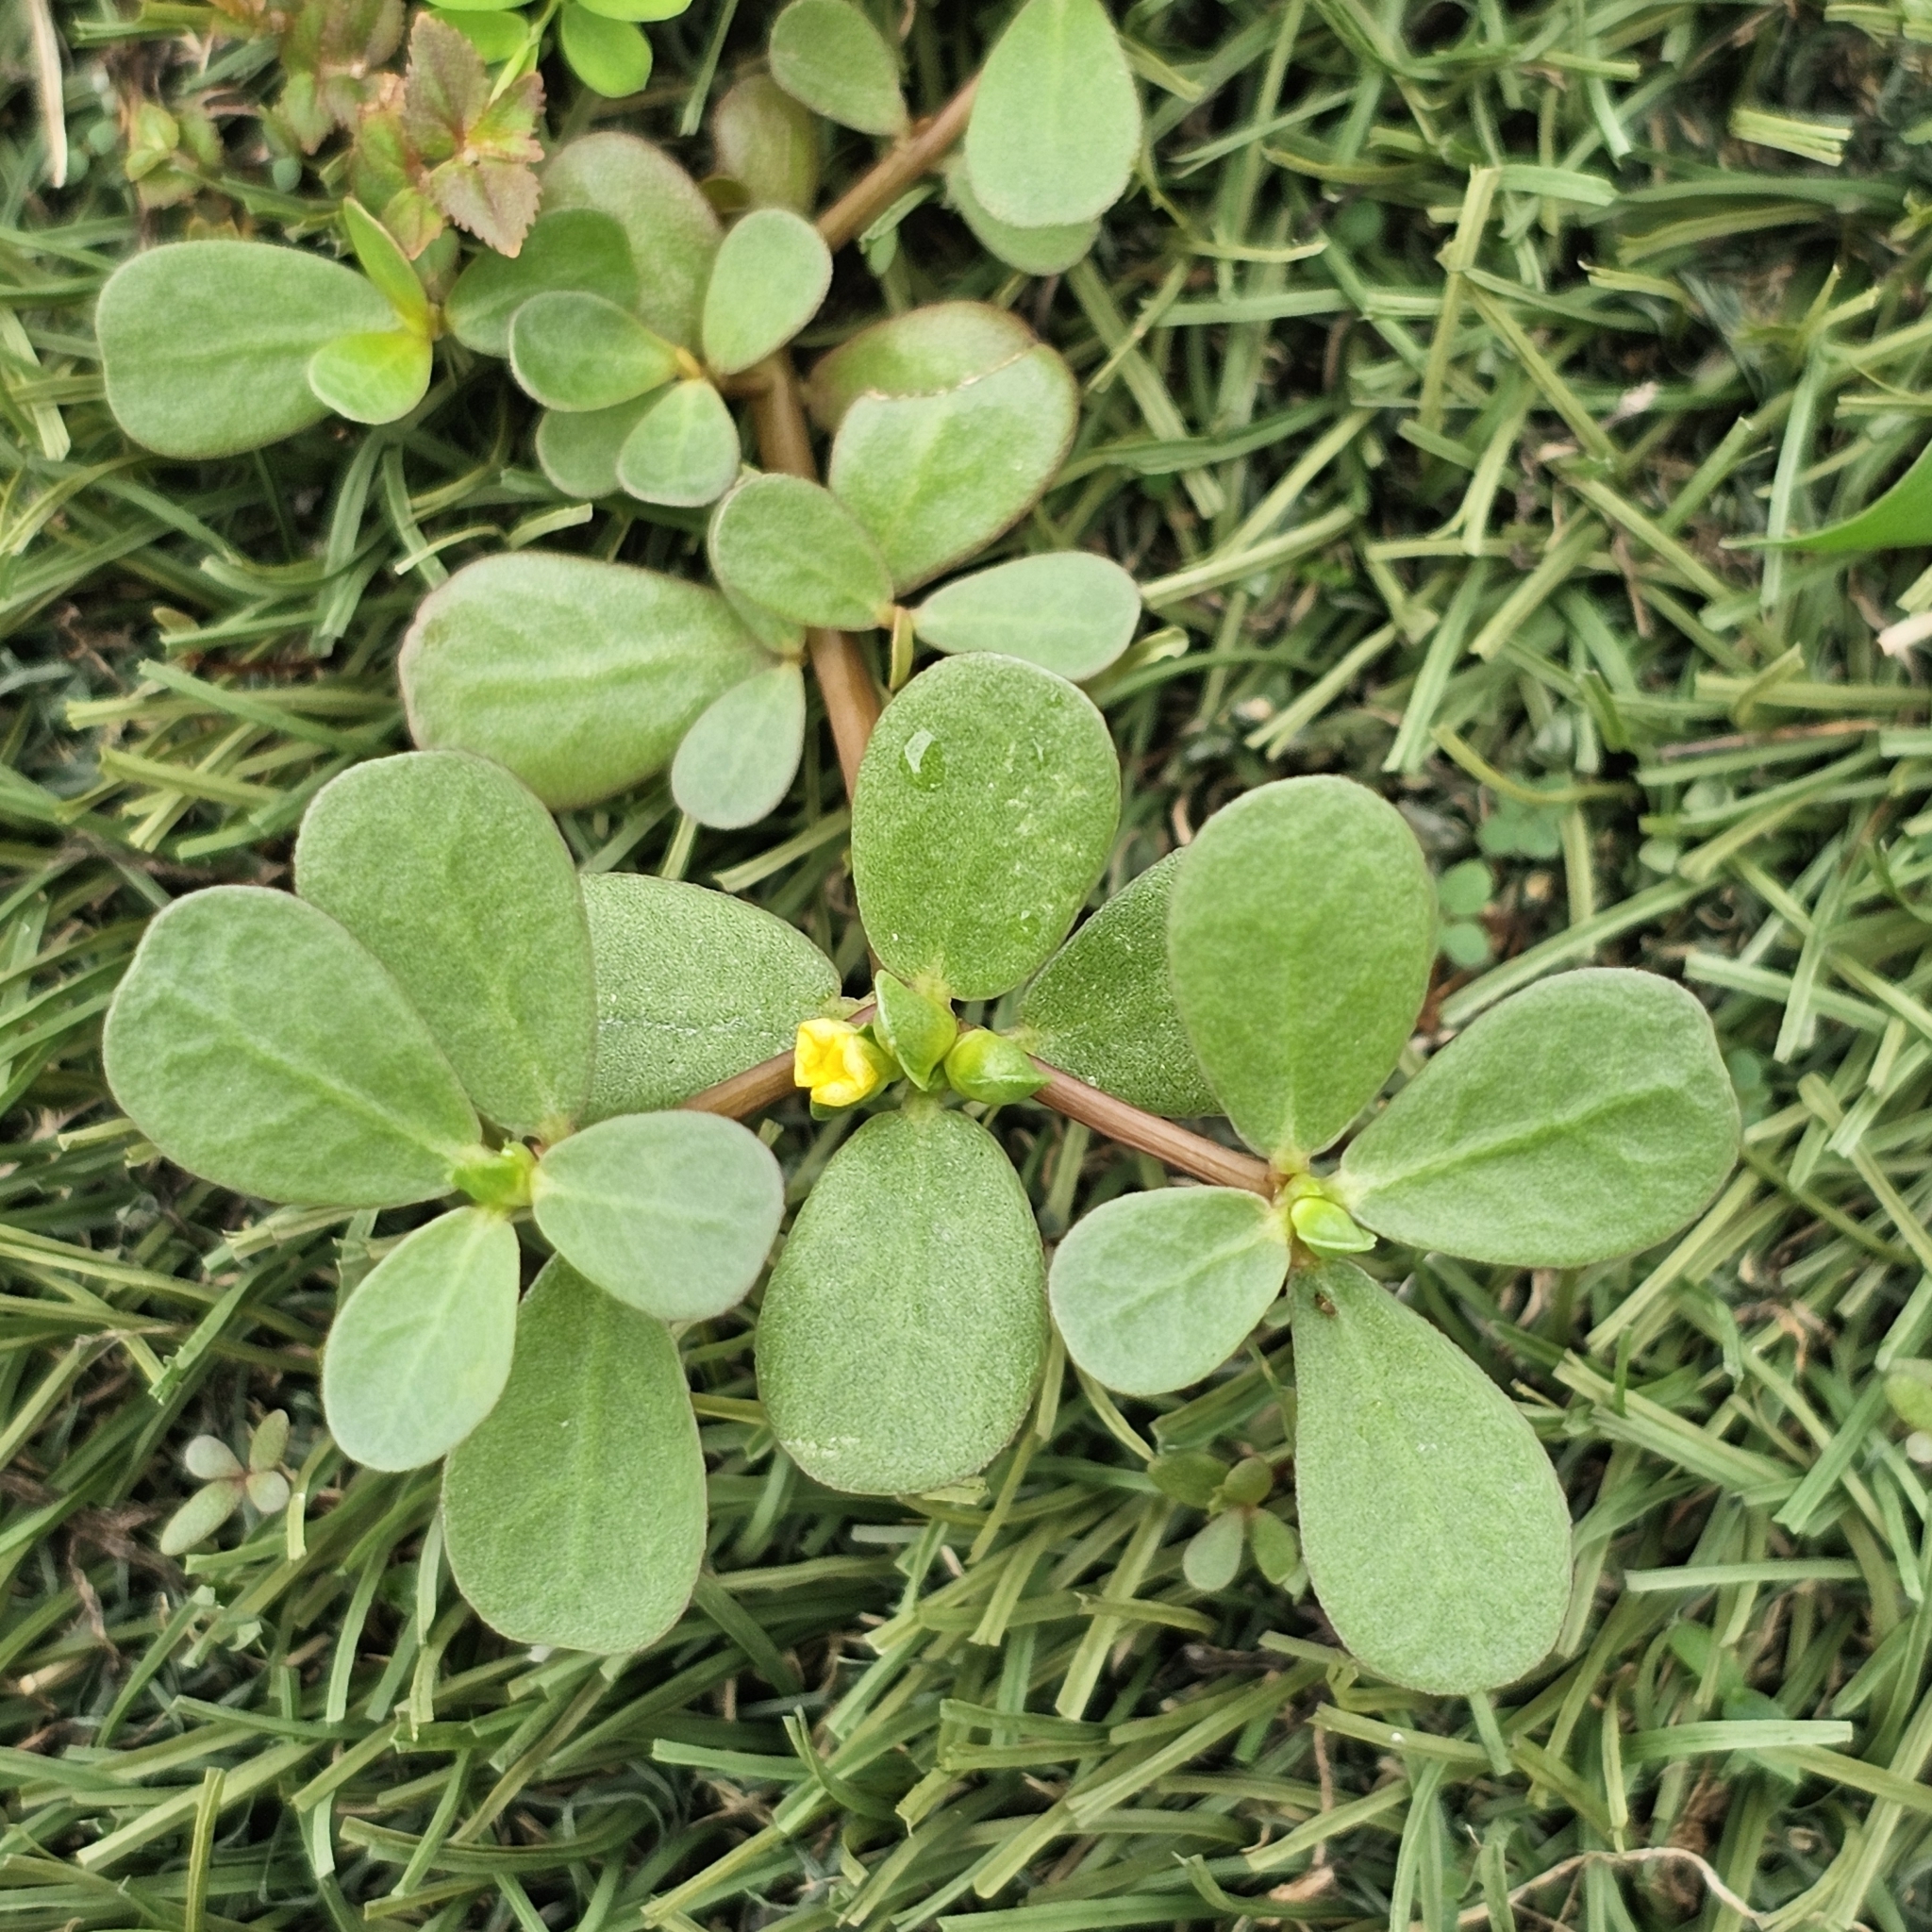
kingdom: Plantae
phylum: Tracheophyta
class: Magnoliopsida
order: Caryophyllales
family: Portulacaceae
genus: Portulaca
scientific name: Portulaca oleracea
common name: Common purslane
